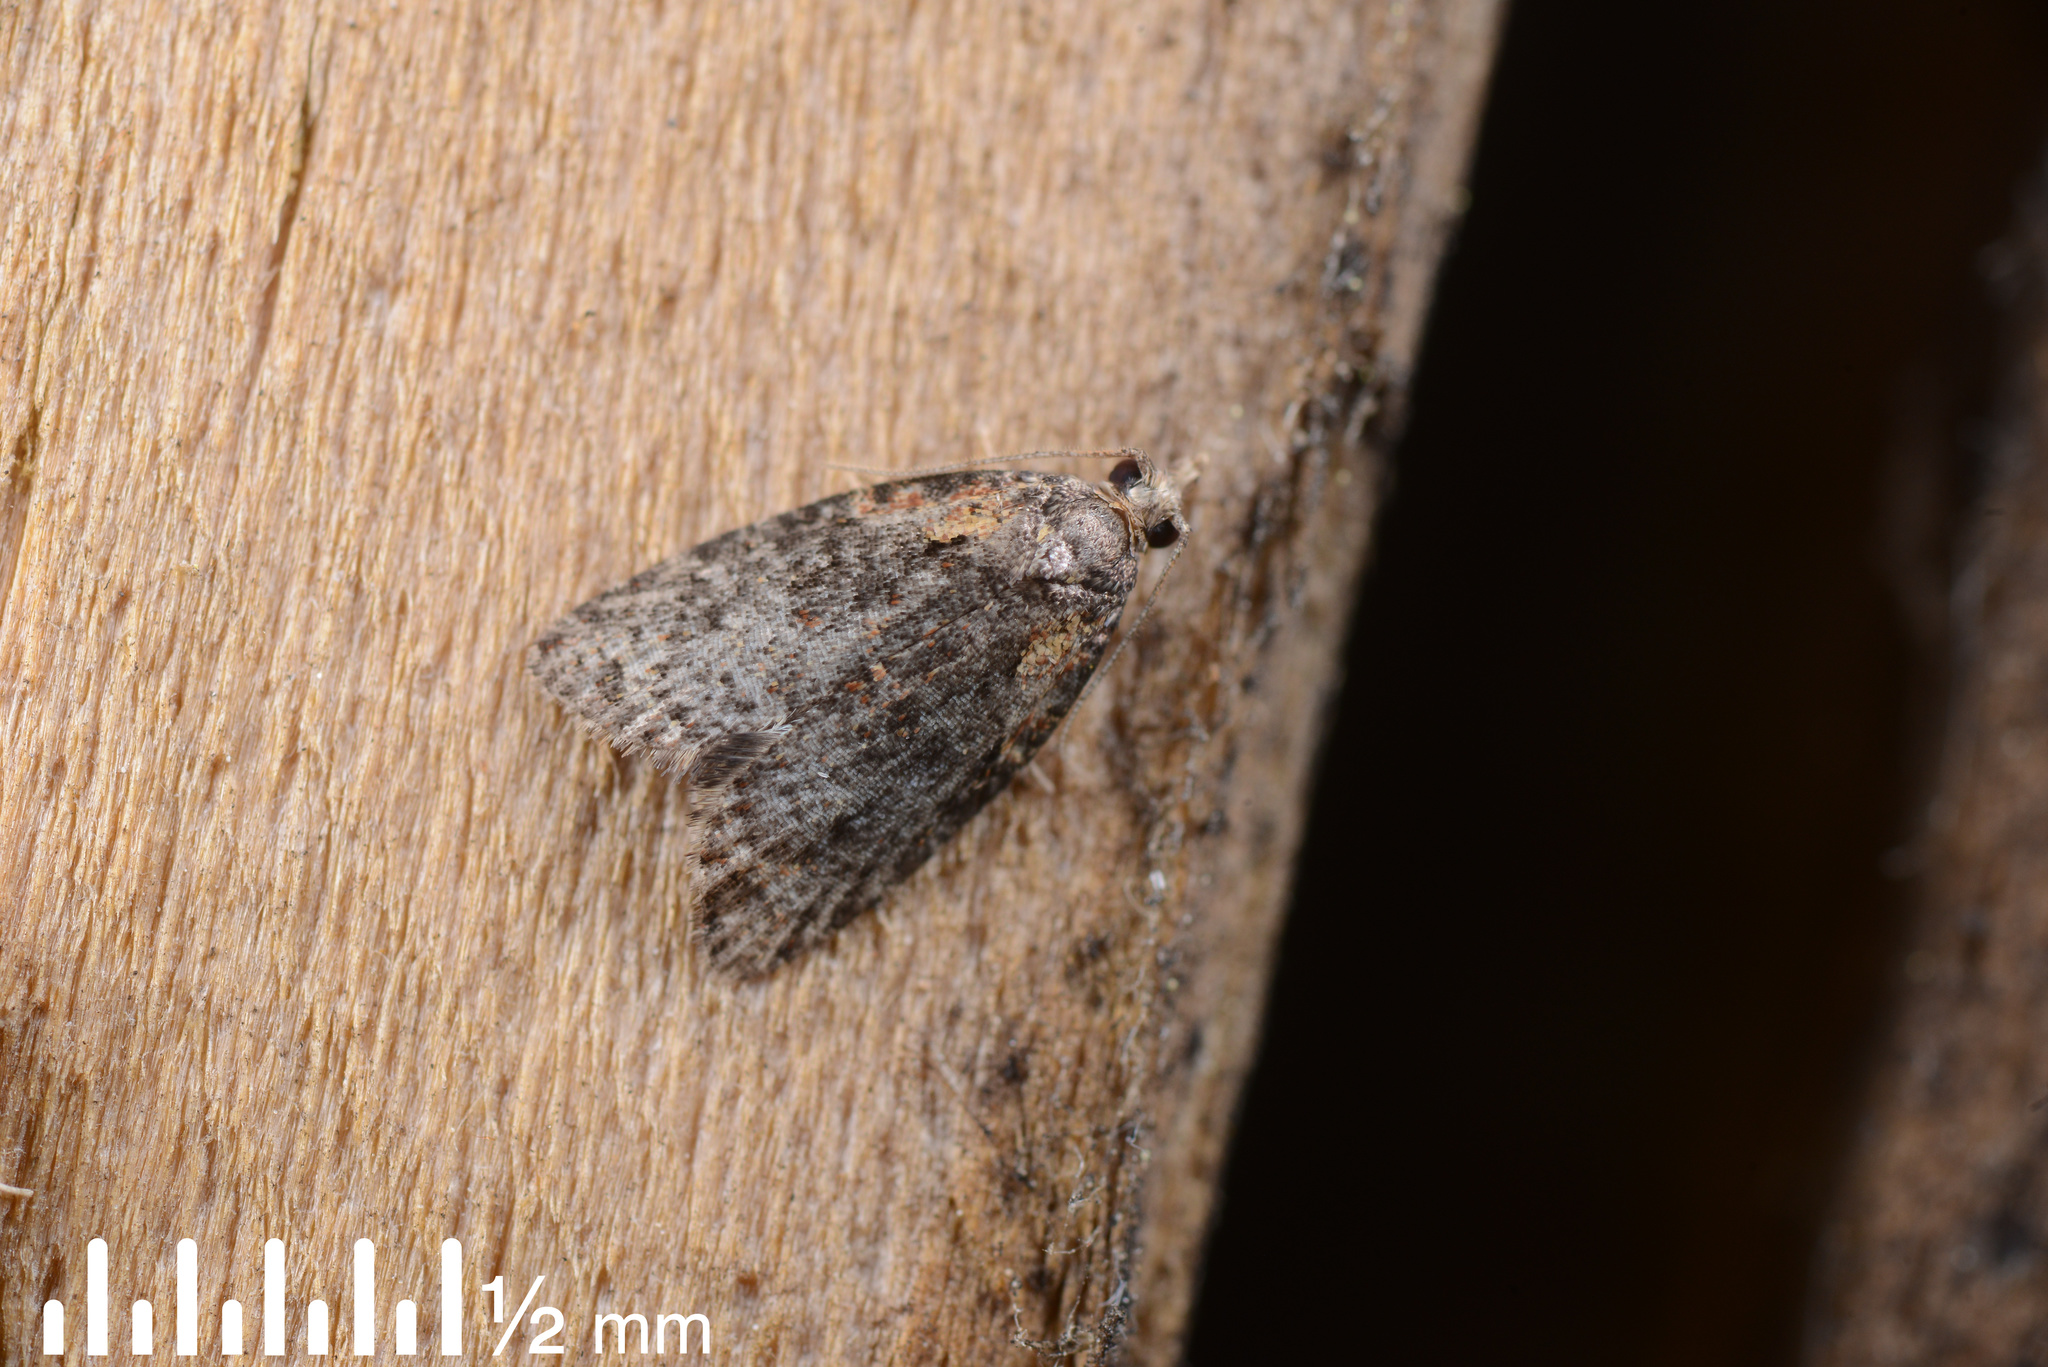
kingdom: Animalia
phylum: Arthropoda
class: Insecta
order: Lepidoptera
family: Tortricidae
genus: Capua
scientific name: Capua intractana
